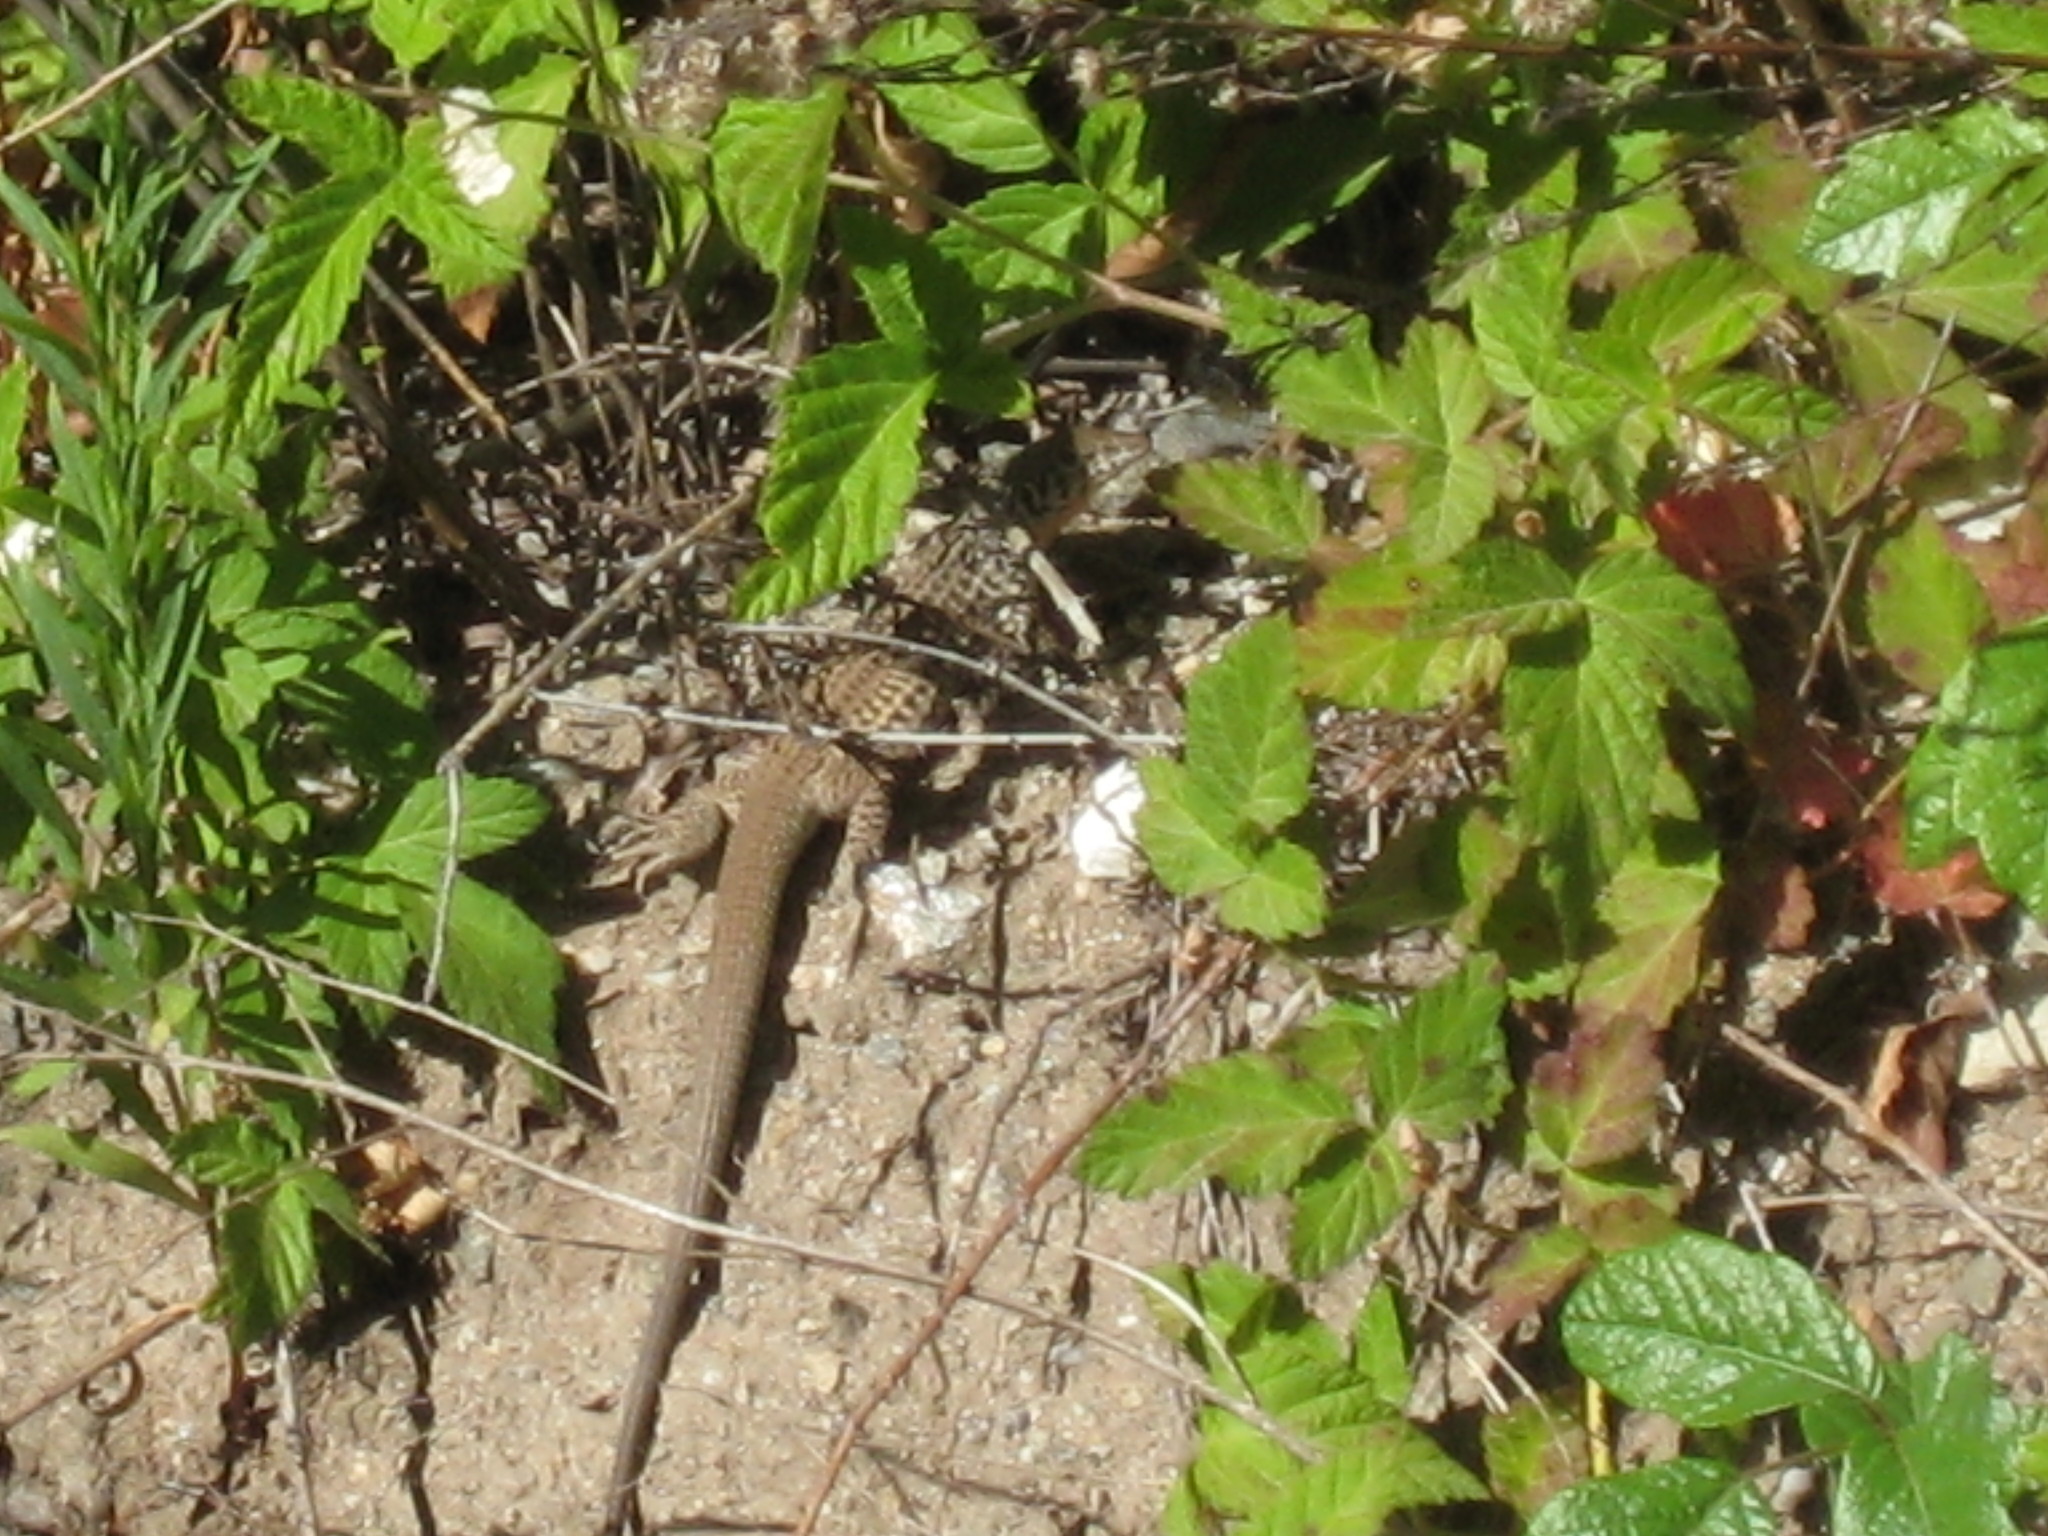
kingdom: Animalia
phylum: Chordata
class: Squamata
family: Teiidae
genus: Aspidoscelis
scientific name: Aspidoscelis tigris
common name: Tiger whiptail
